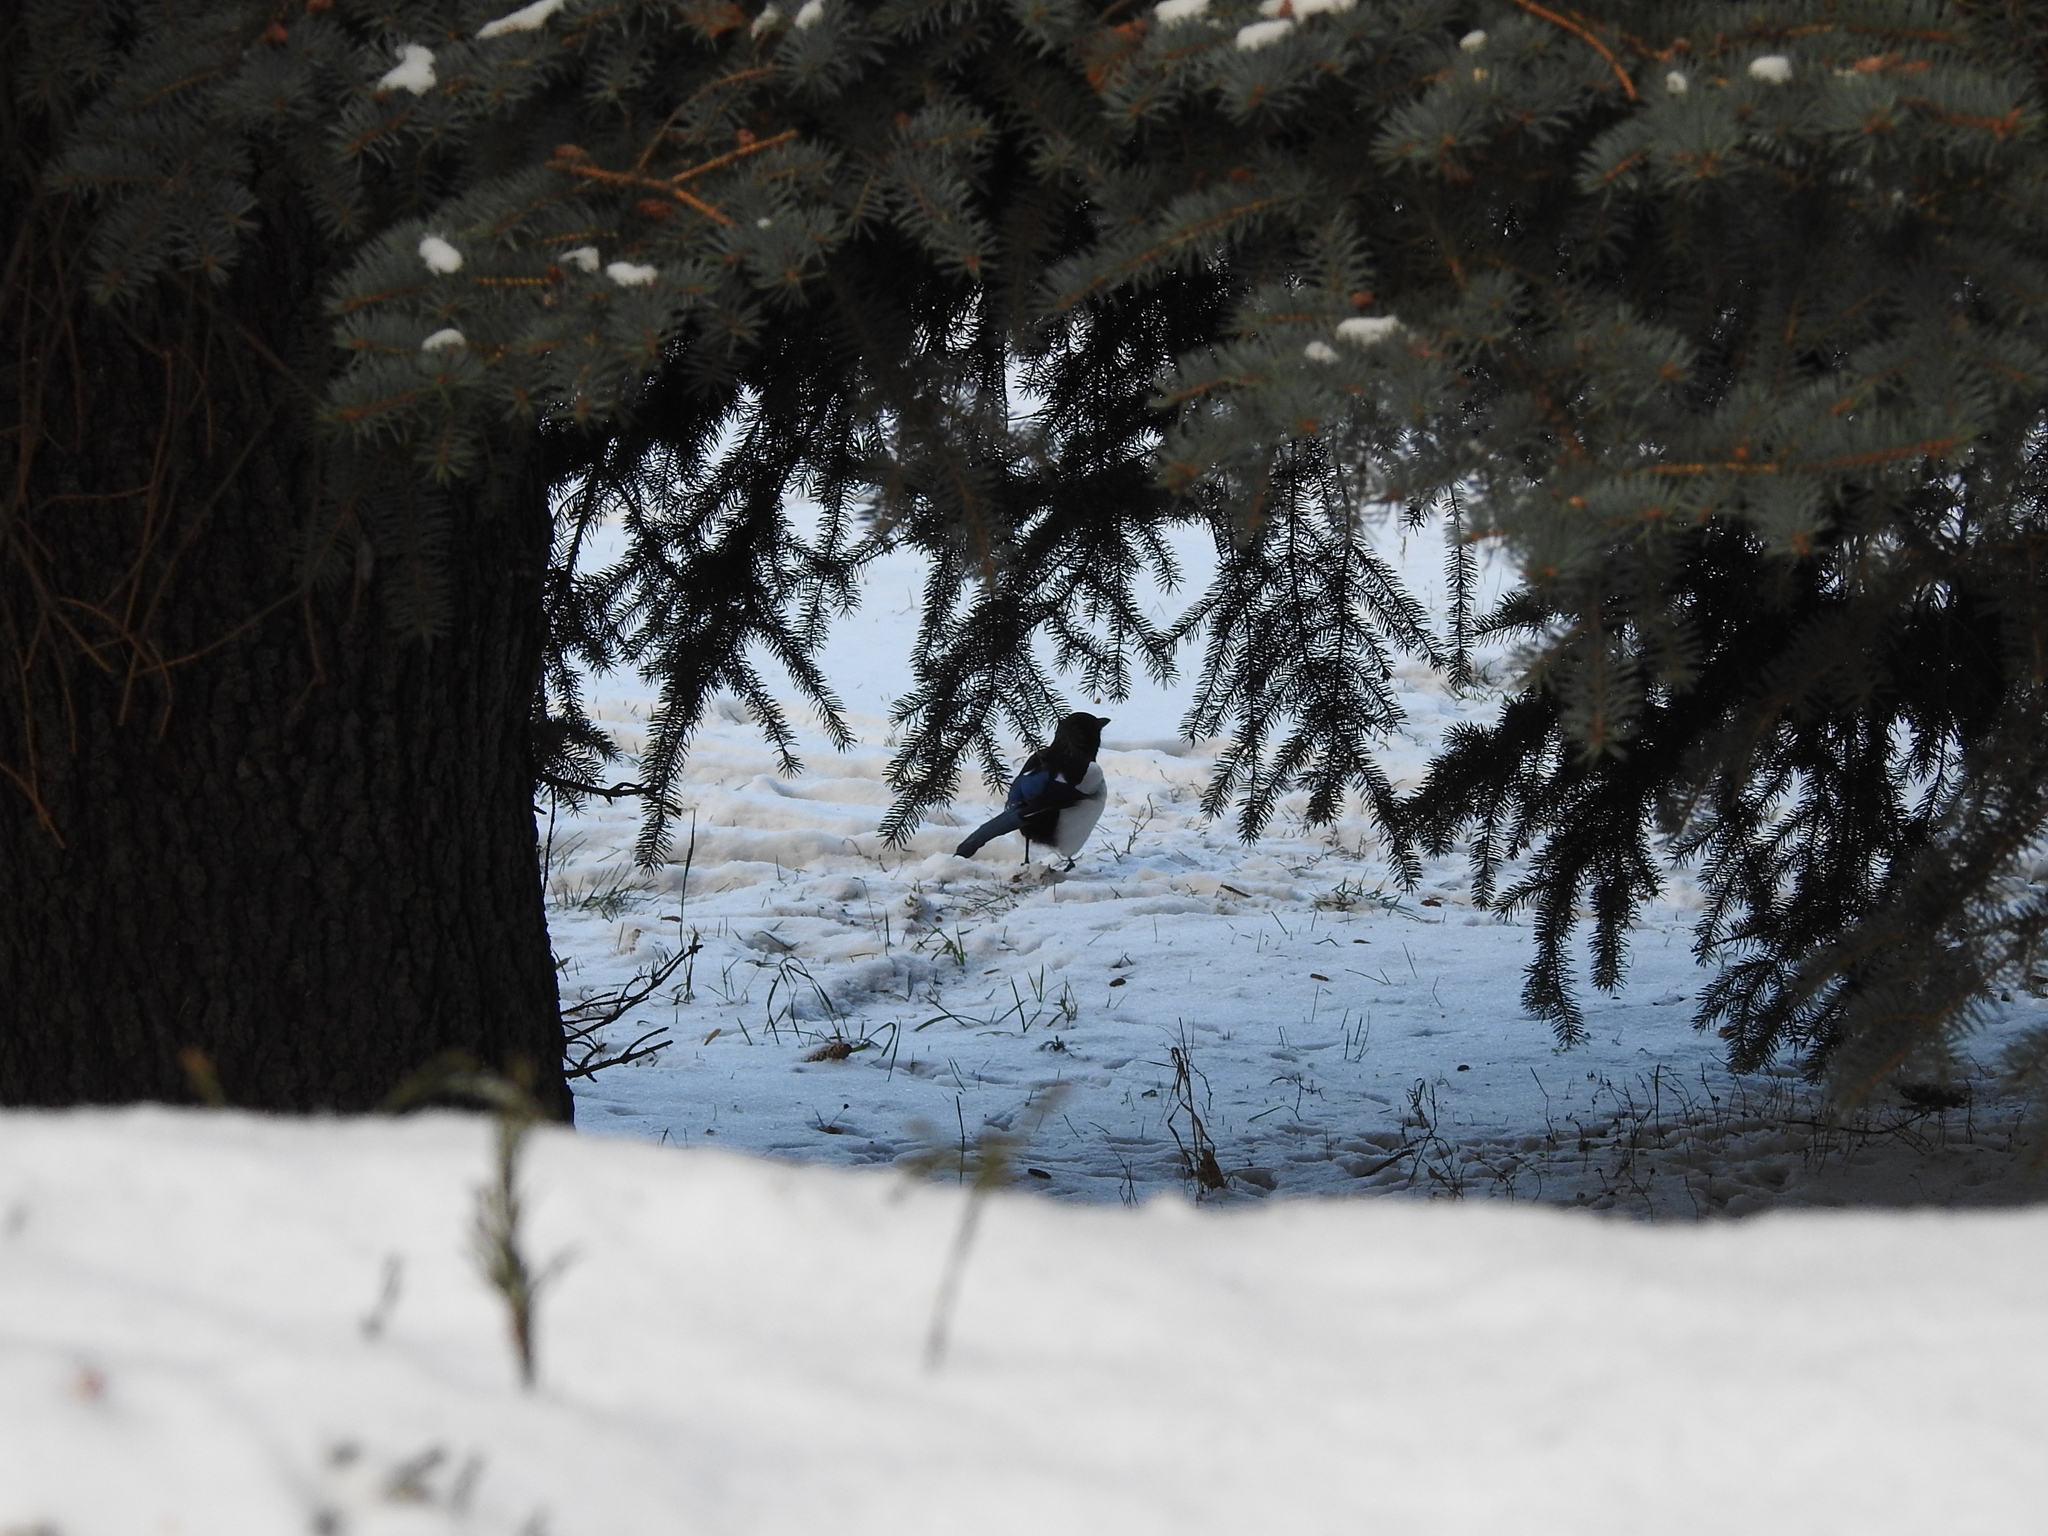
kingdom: Animalia
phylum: Chordata
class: Aves
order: Passeriformes
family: Corvidae
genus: Pica
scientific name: Pica pica
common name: Eurasian magpie
